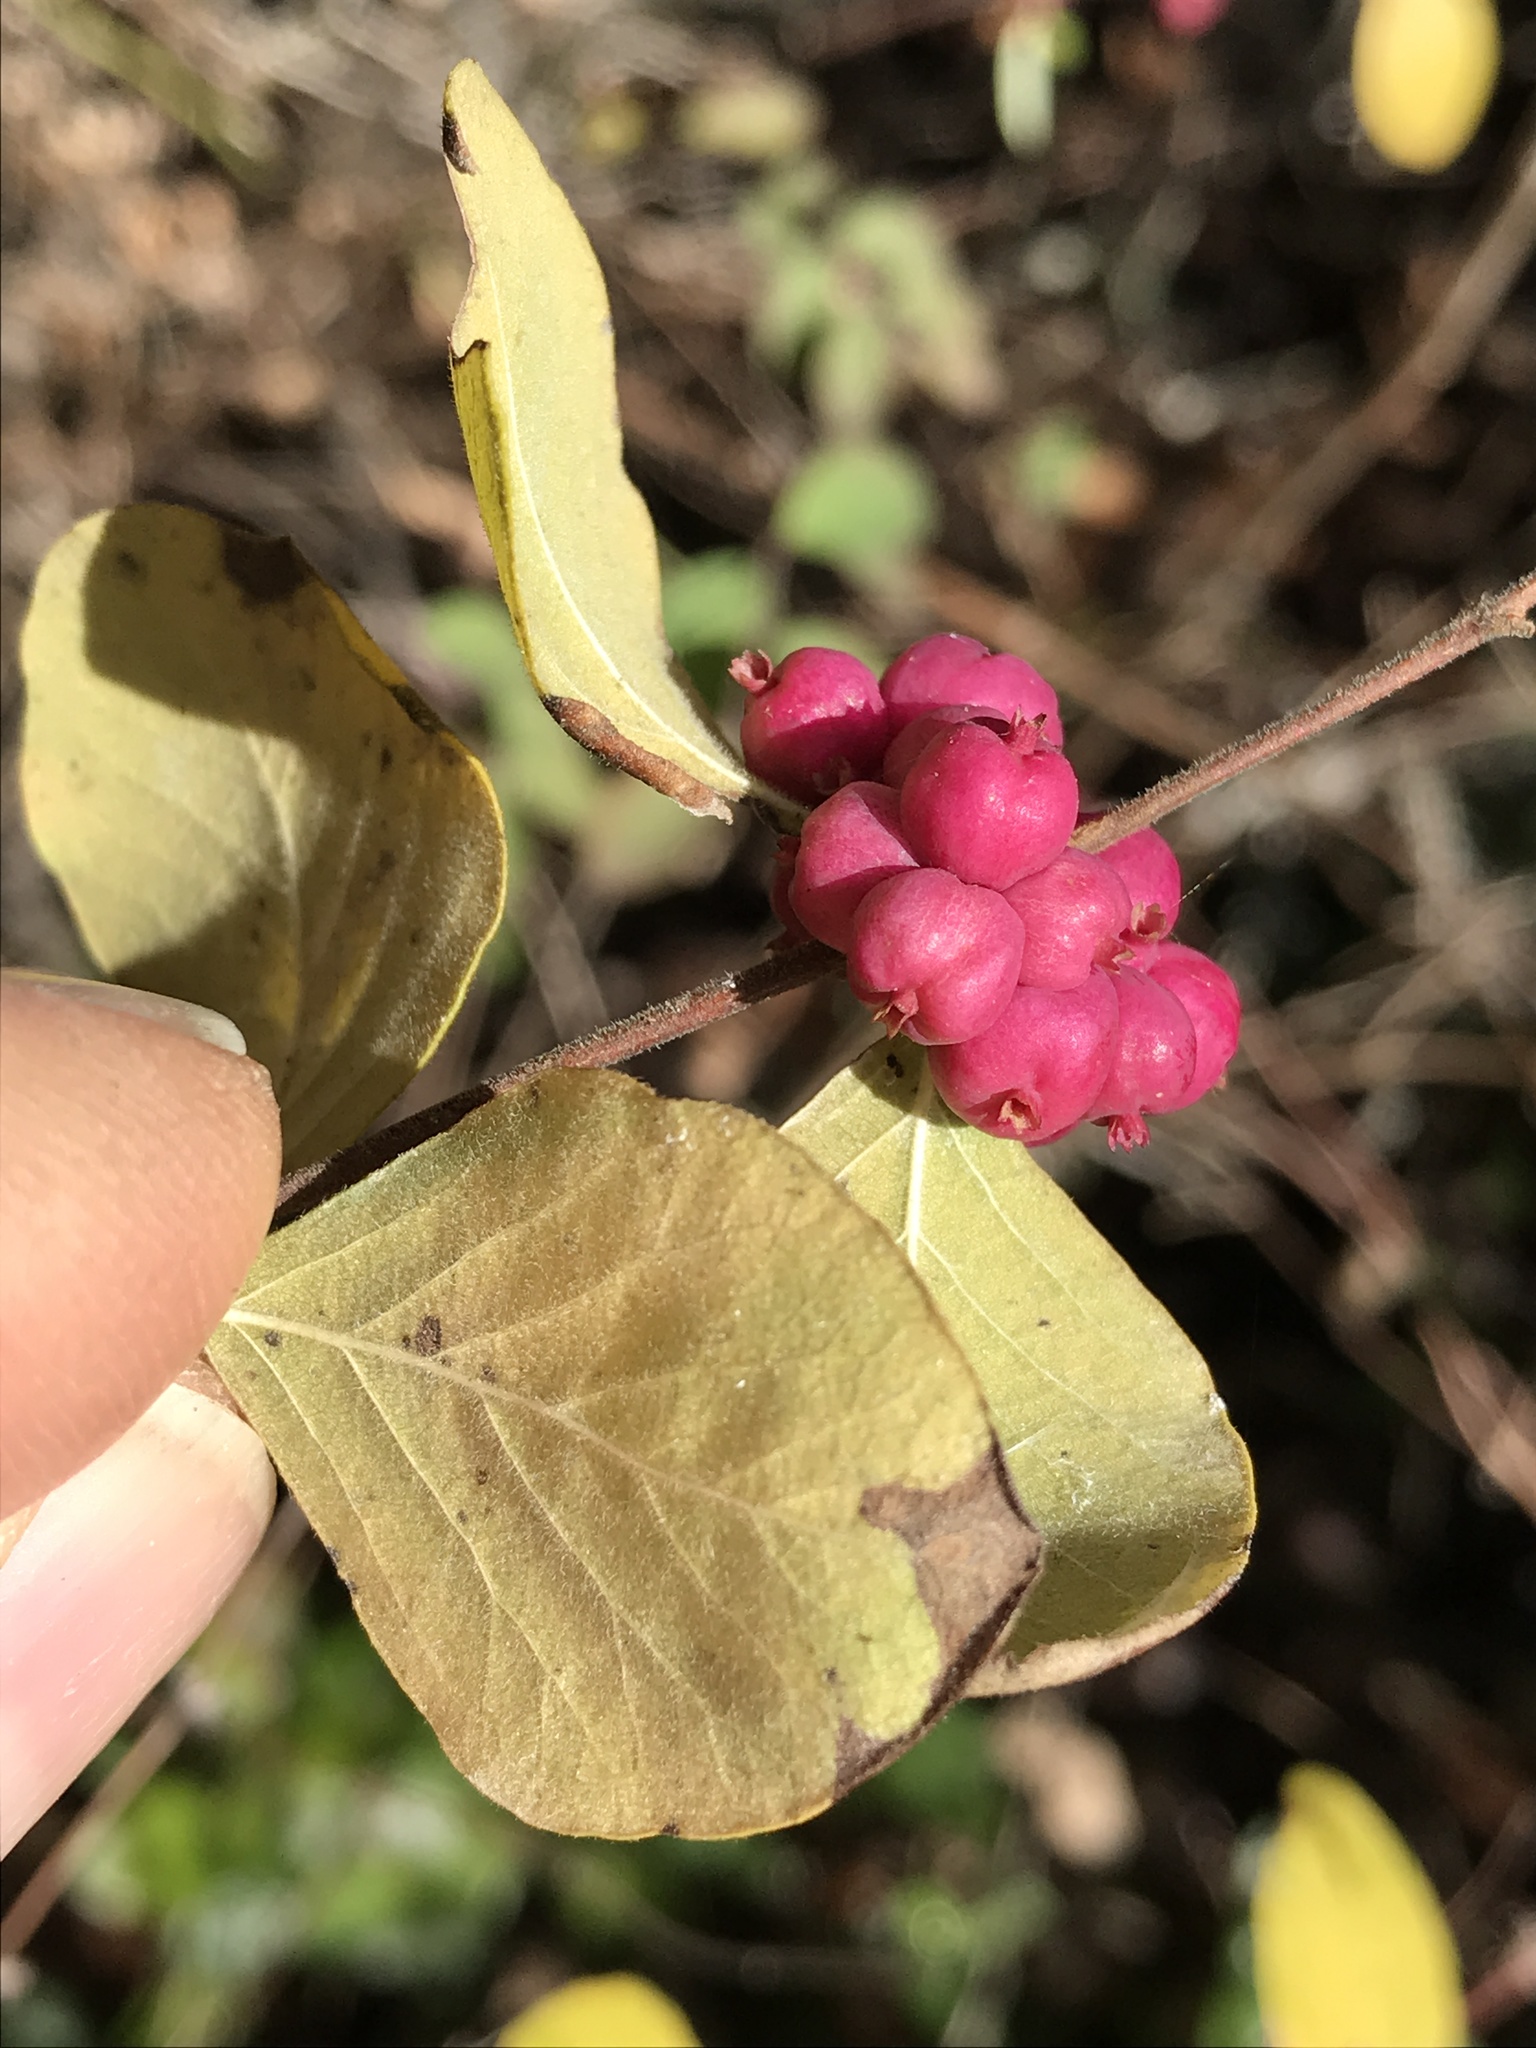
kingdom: Plantae
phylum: Tracheophyta
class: Magnoliopsida
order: Dipsacales
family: Caprifoliaceae
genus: Symphoricarpos
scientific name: Symphoricarpos orbiculatus
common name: Coralberry
